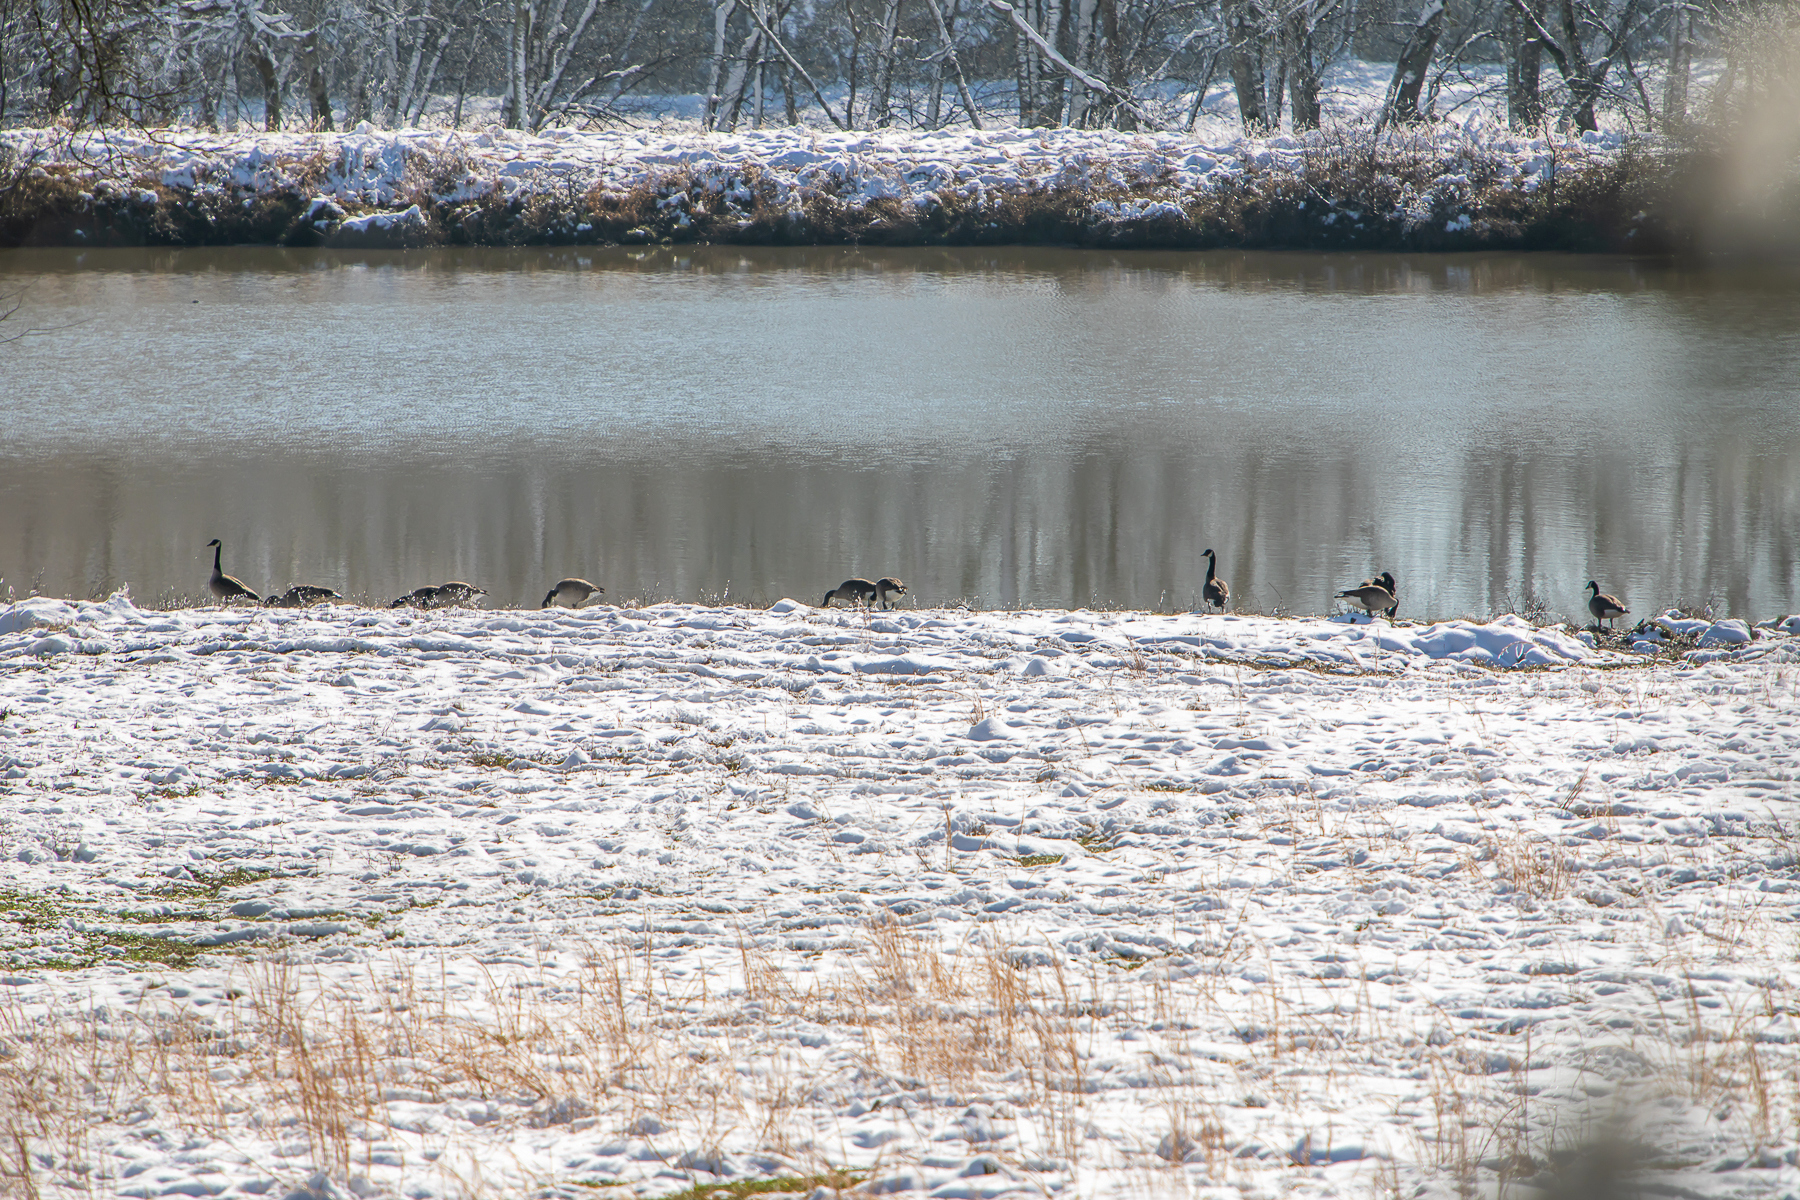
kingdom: Animalia
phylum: Chordata
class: Aves
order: Anseriformes
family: Anatidae
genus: Branta
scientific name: Branta canadensis
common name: Canada goose
